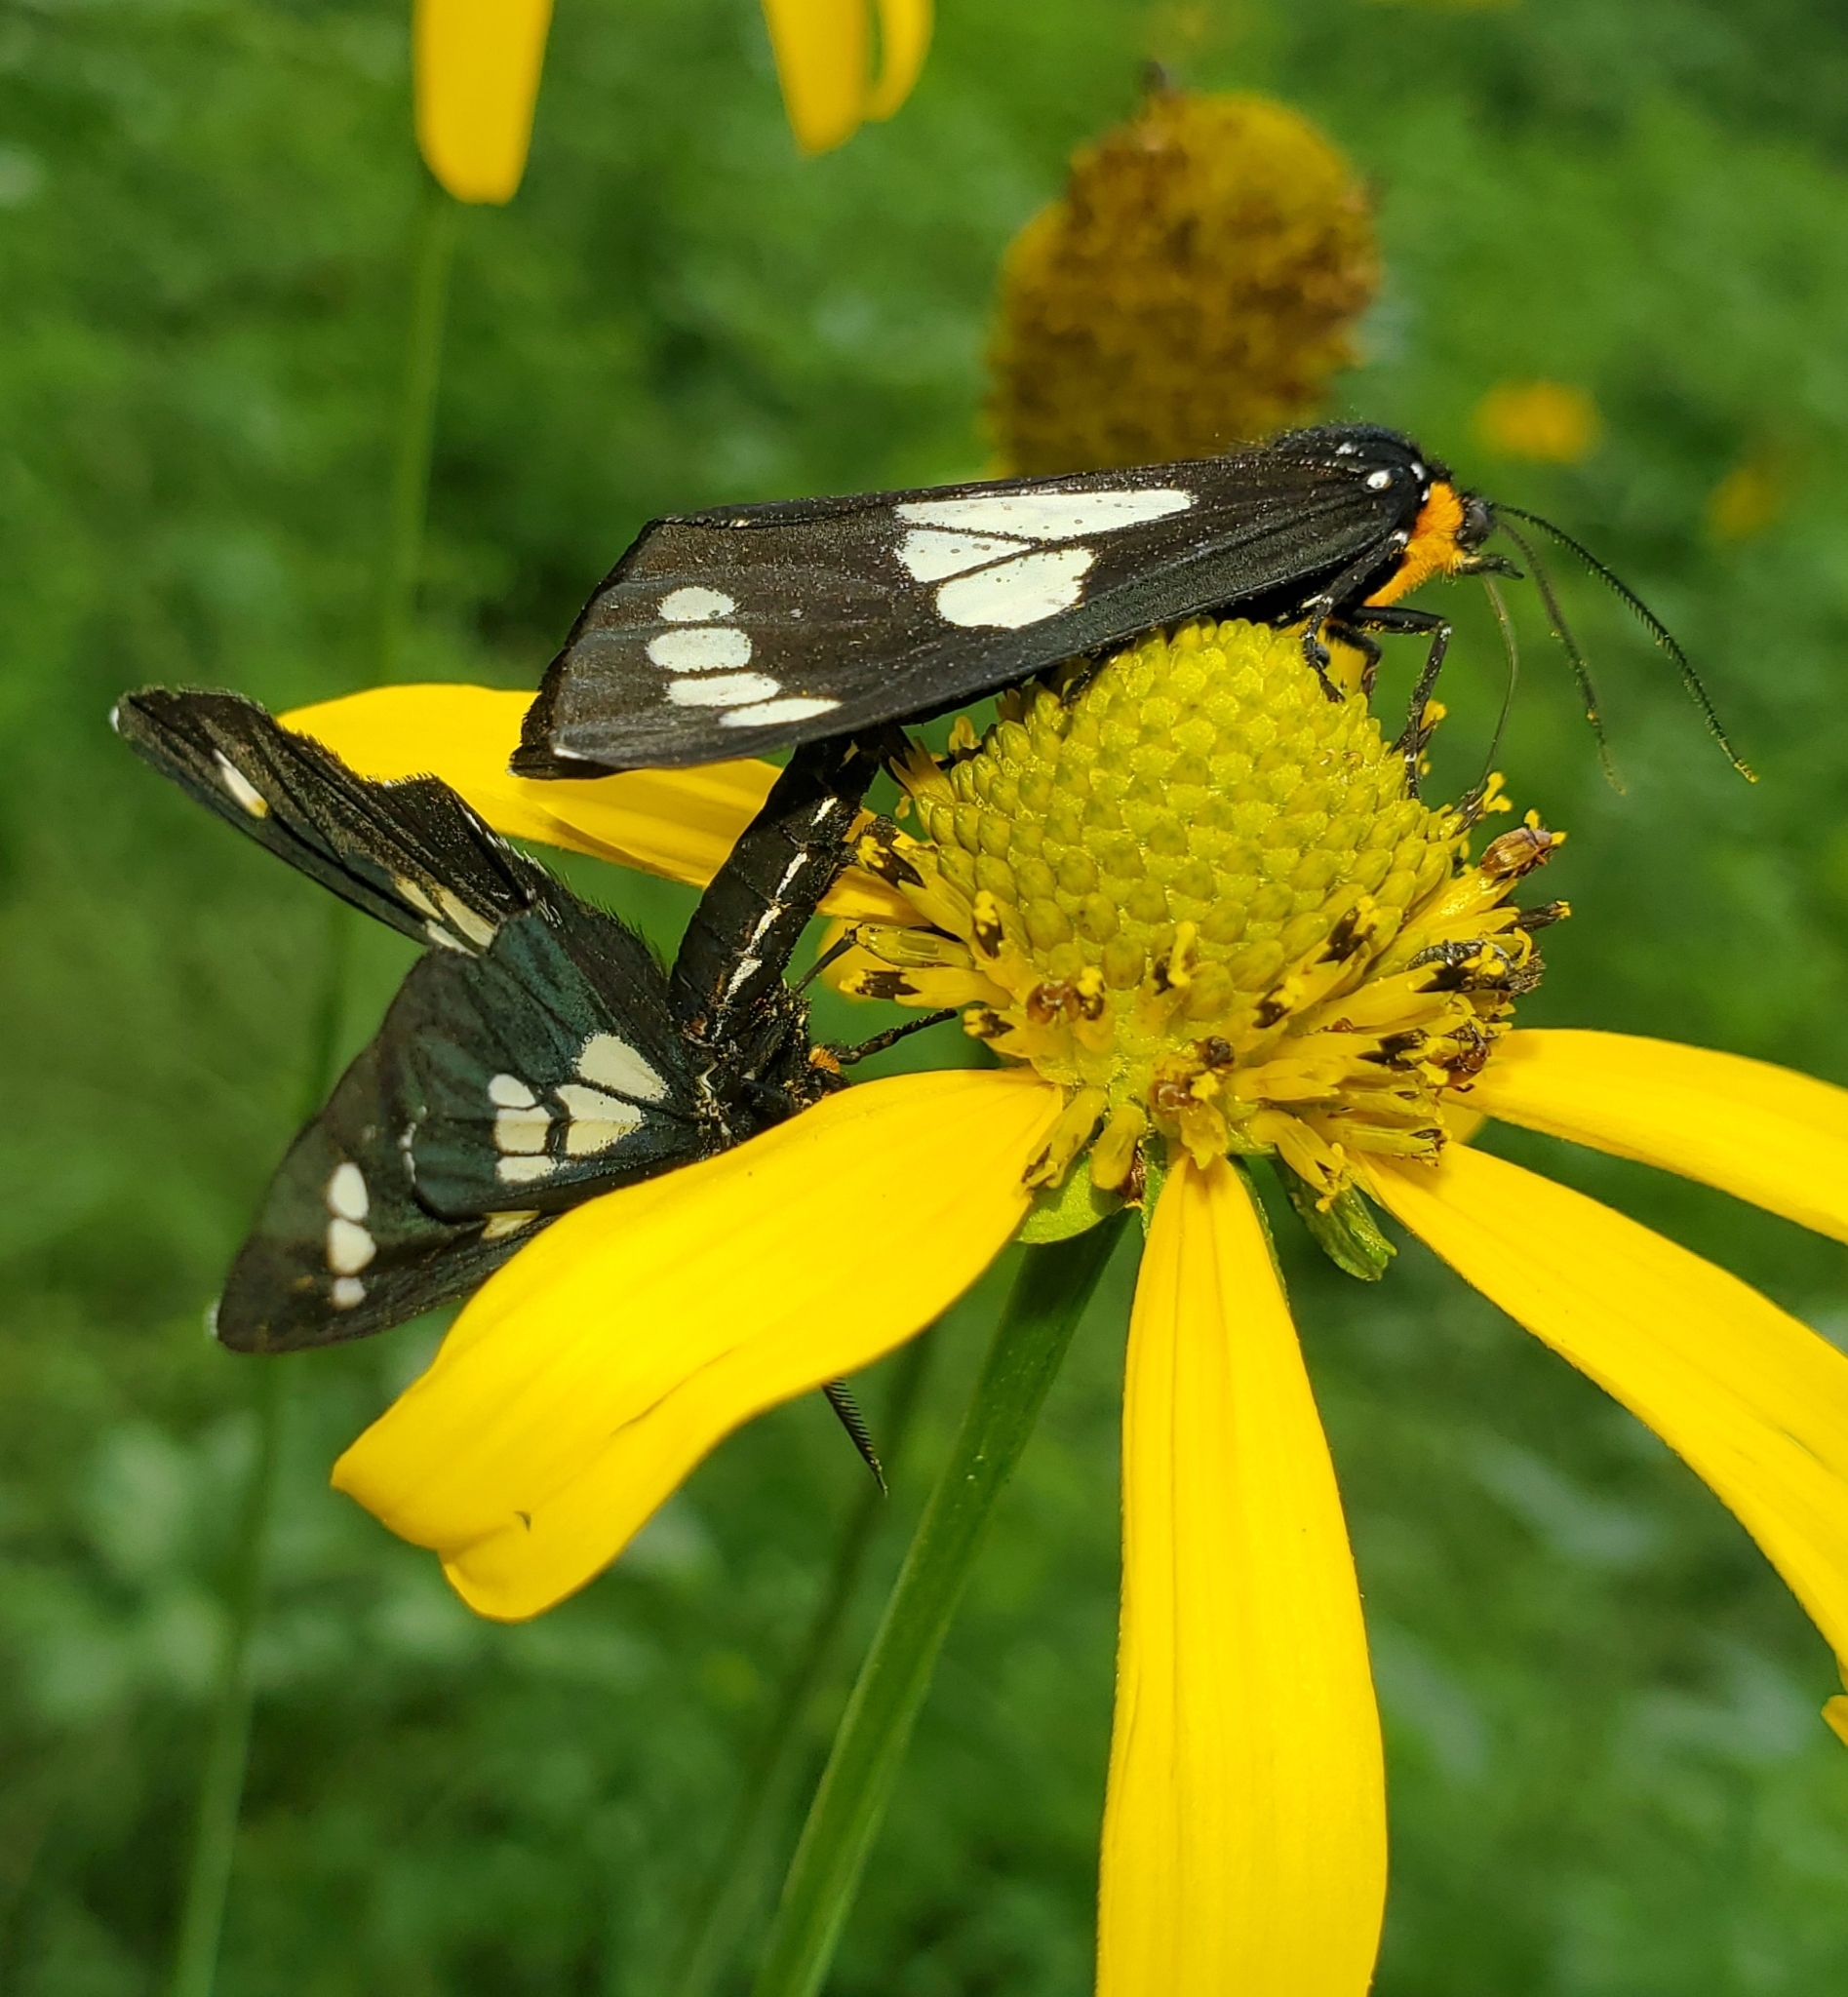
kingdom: Animalia
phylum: Arthropoda
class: Insecta
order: Lepidoptera
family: Erebidae
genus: Gnophaela
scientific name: Gnophaela discreta
